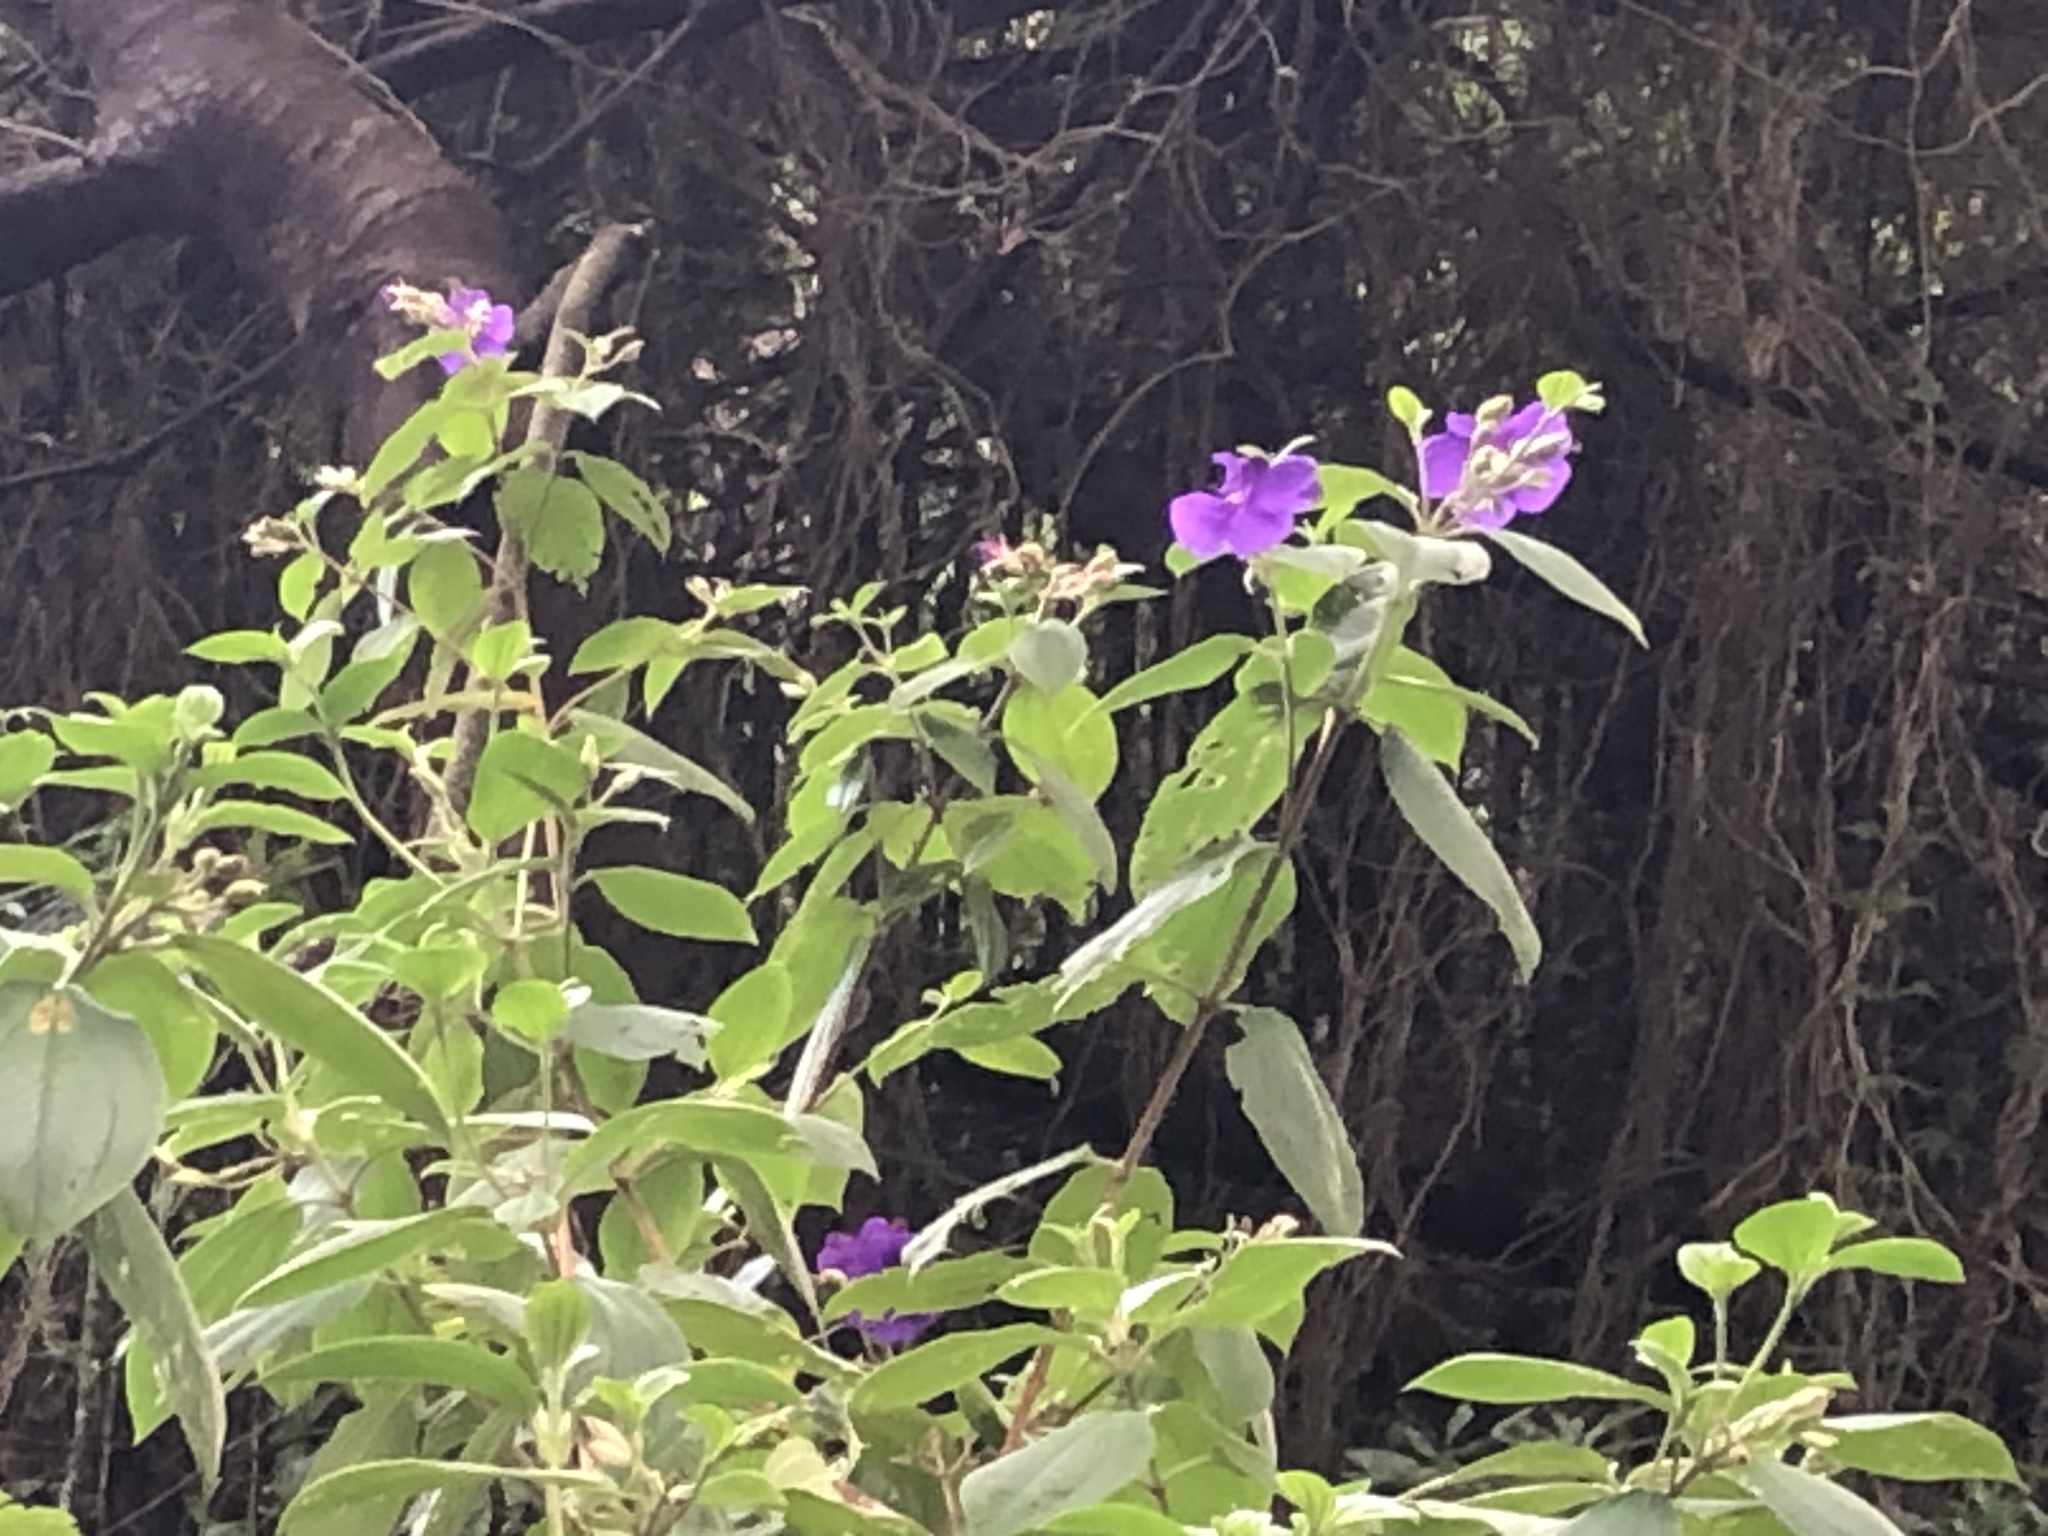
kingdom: Plantae
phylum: Tracheophyta
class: Magnoliopsida
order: Myrtales
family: Melastomataceae
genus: Pleroma
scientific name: Pleroma urvilleanum
